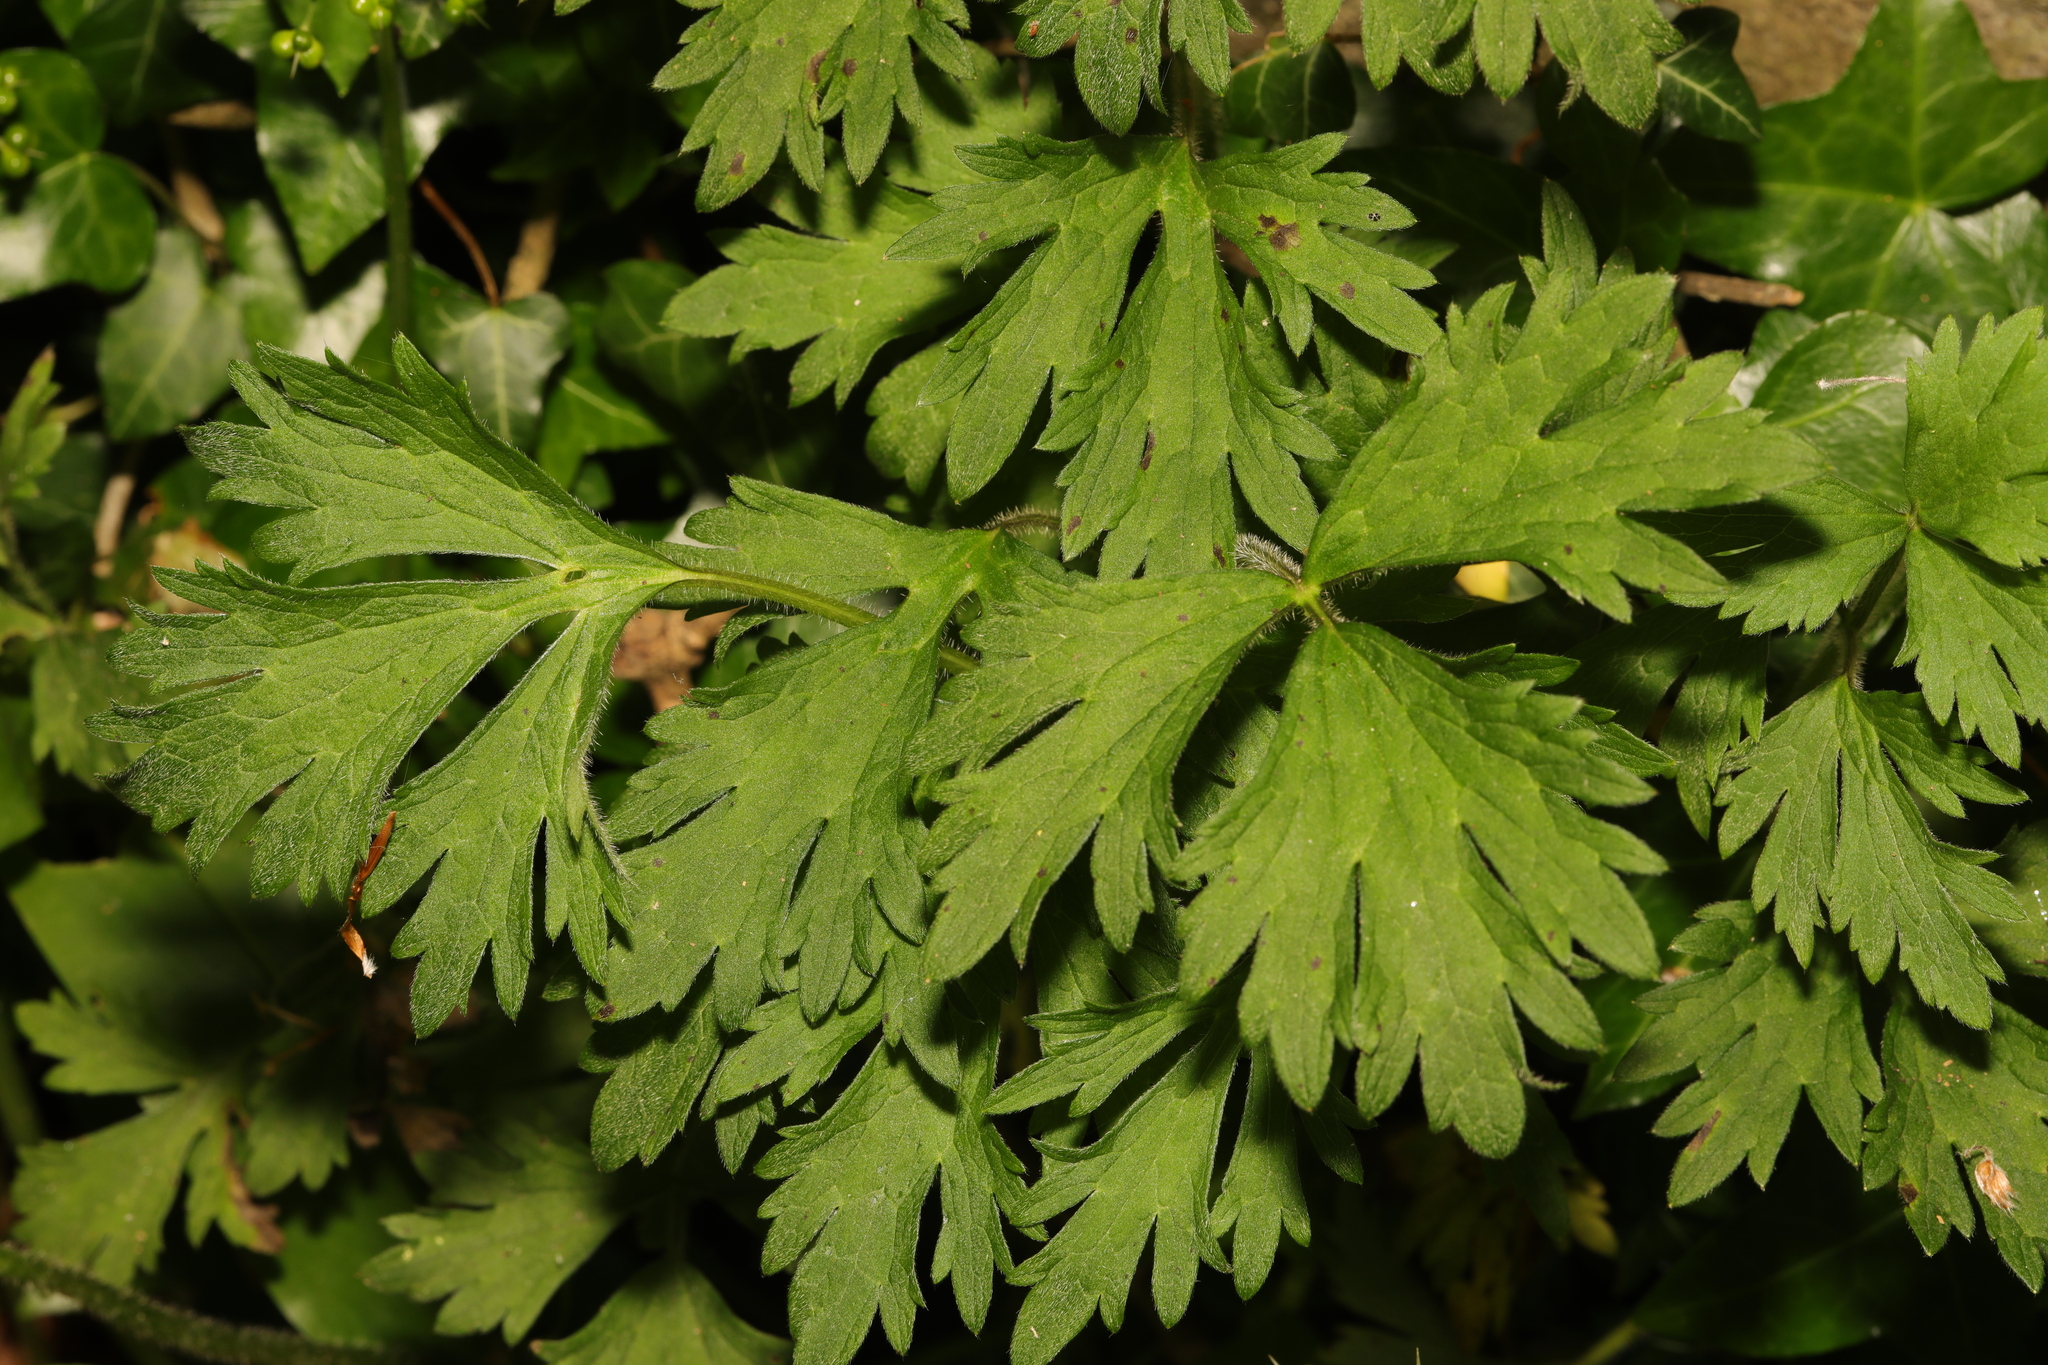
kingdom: Plantae
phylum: Tracheophyta
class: Magnoliopsida
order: Ranunculales
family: Ranunculaceae
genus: Ranunculus
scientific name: Ranunculus repens
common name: Creeping buttercup
